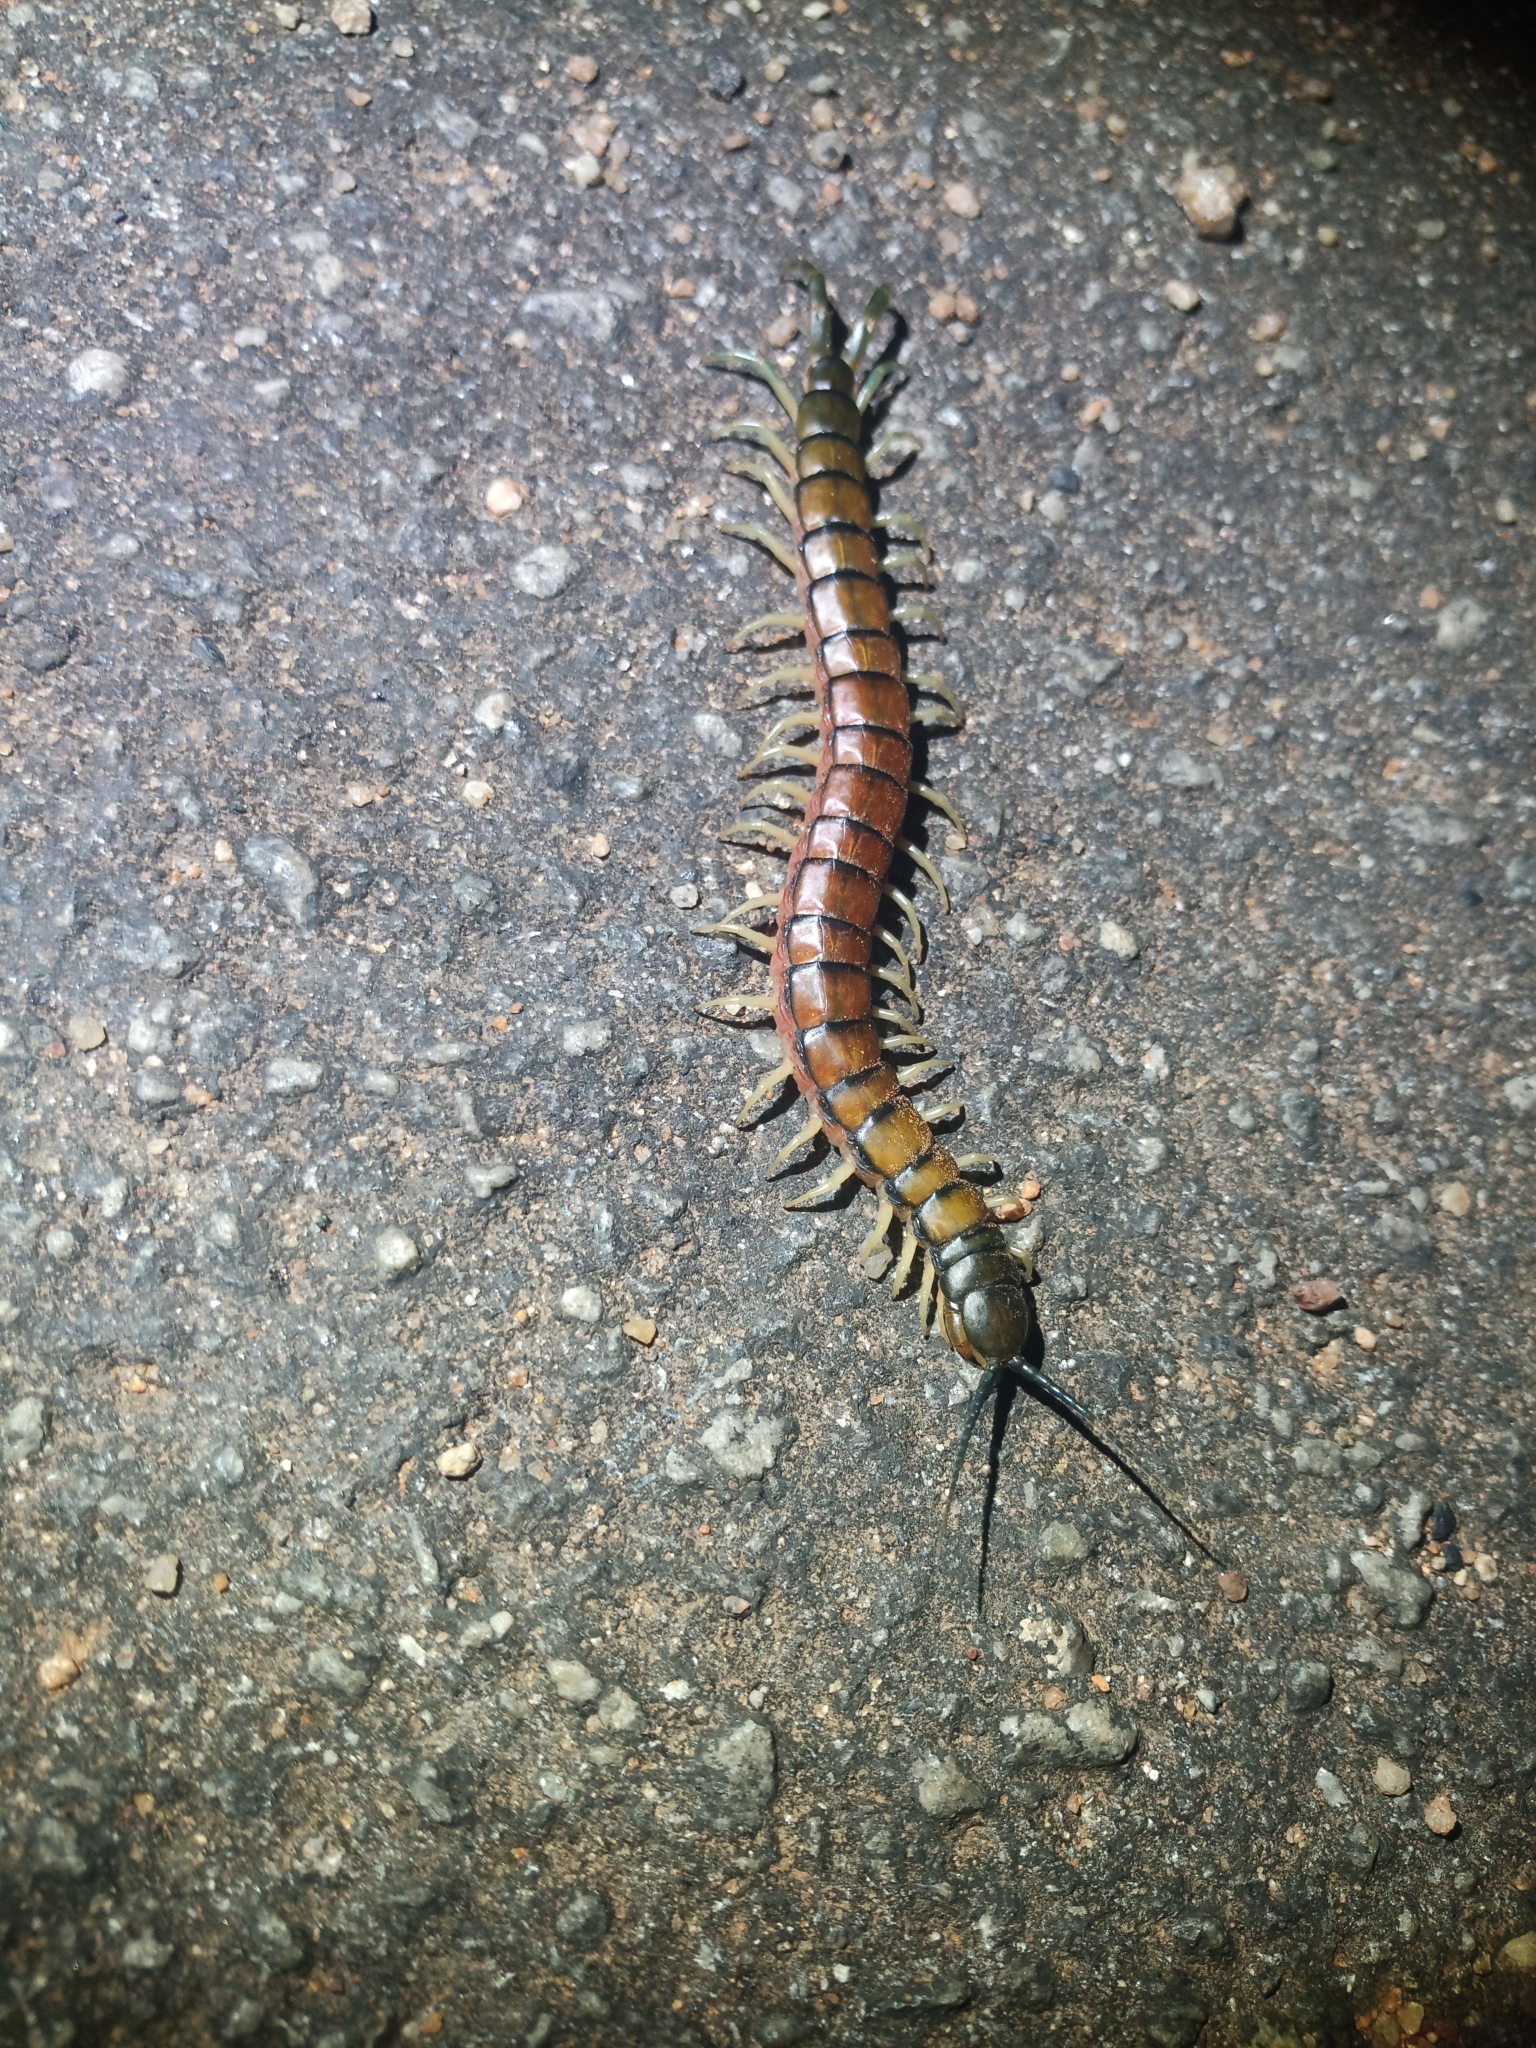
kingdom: Animalia
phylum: Arthropoda
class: Chilopoda
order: Scolopendromorpha
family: Scolopendridae
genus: Scolopendra
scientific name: Scolopendra morsitans
